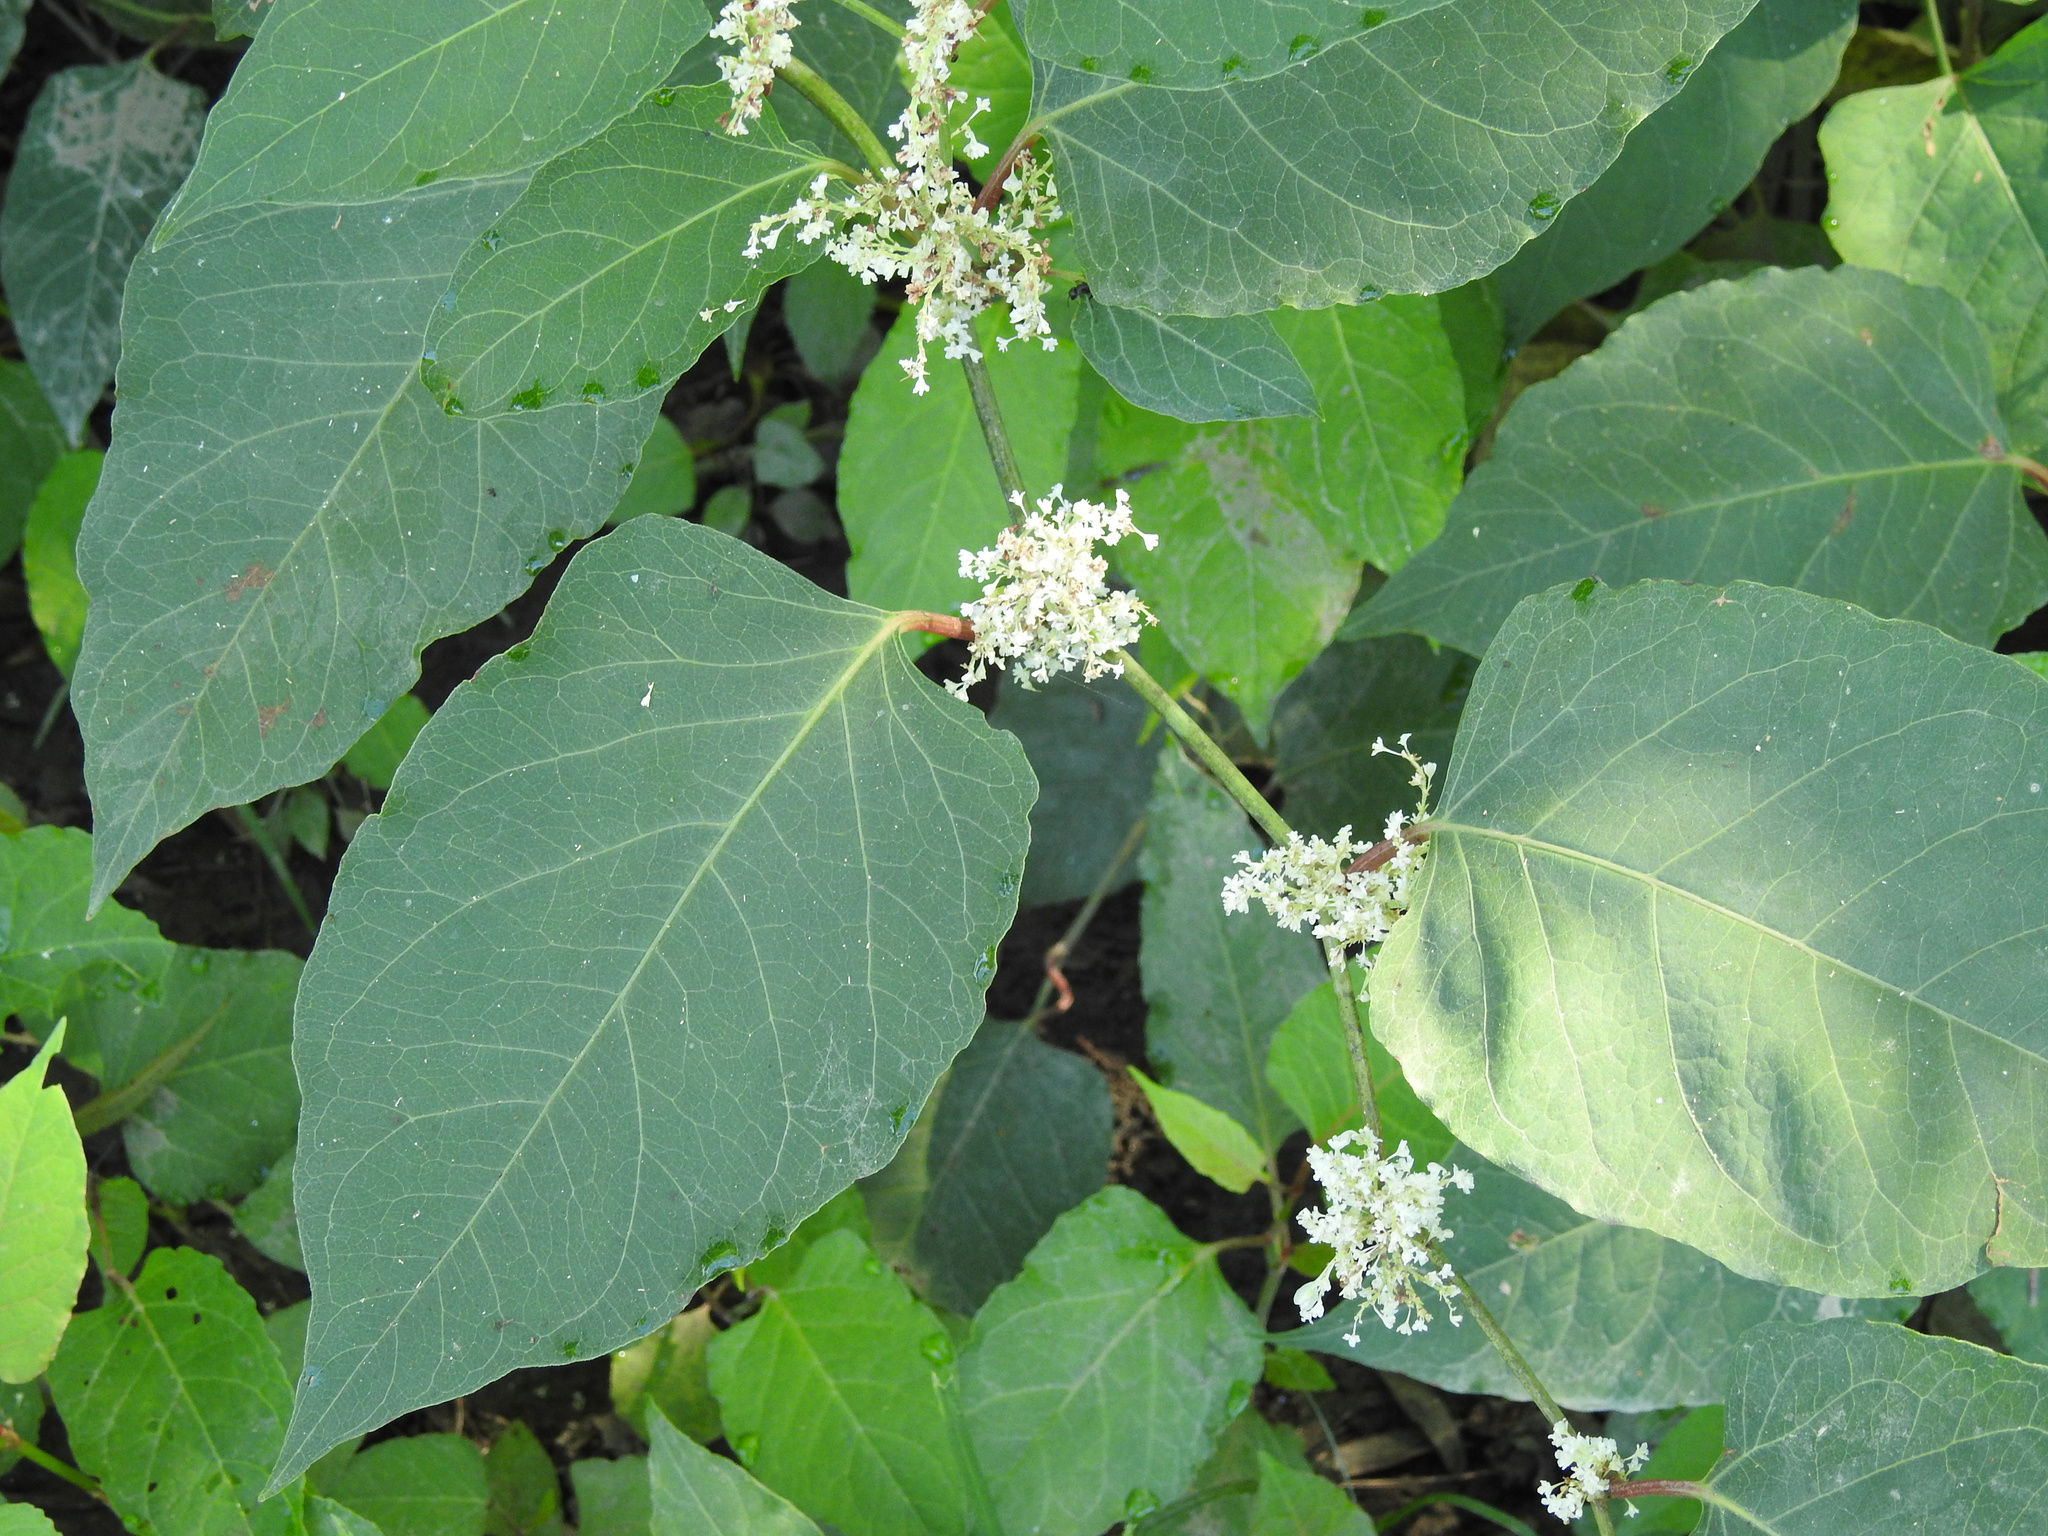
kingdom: Plantae
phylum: Tracheophyta
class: Magnoliopsida
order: Caryophyllales
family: Polygonaceae
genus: Reynoutria
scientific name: Reynoutria japonica
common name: Japanese knotweed
